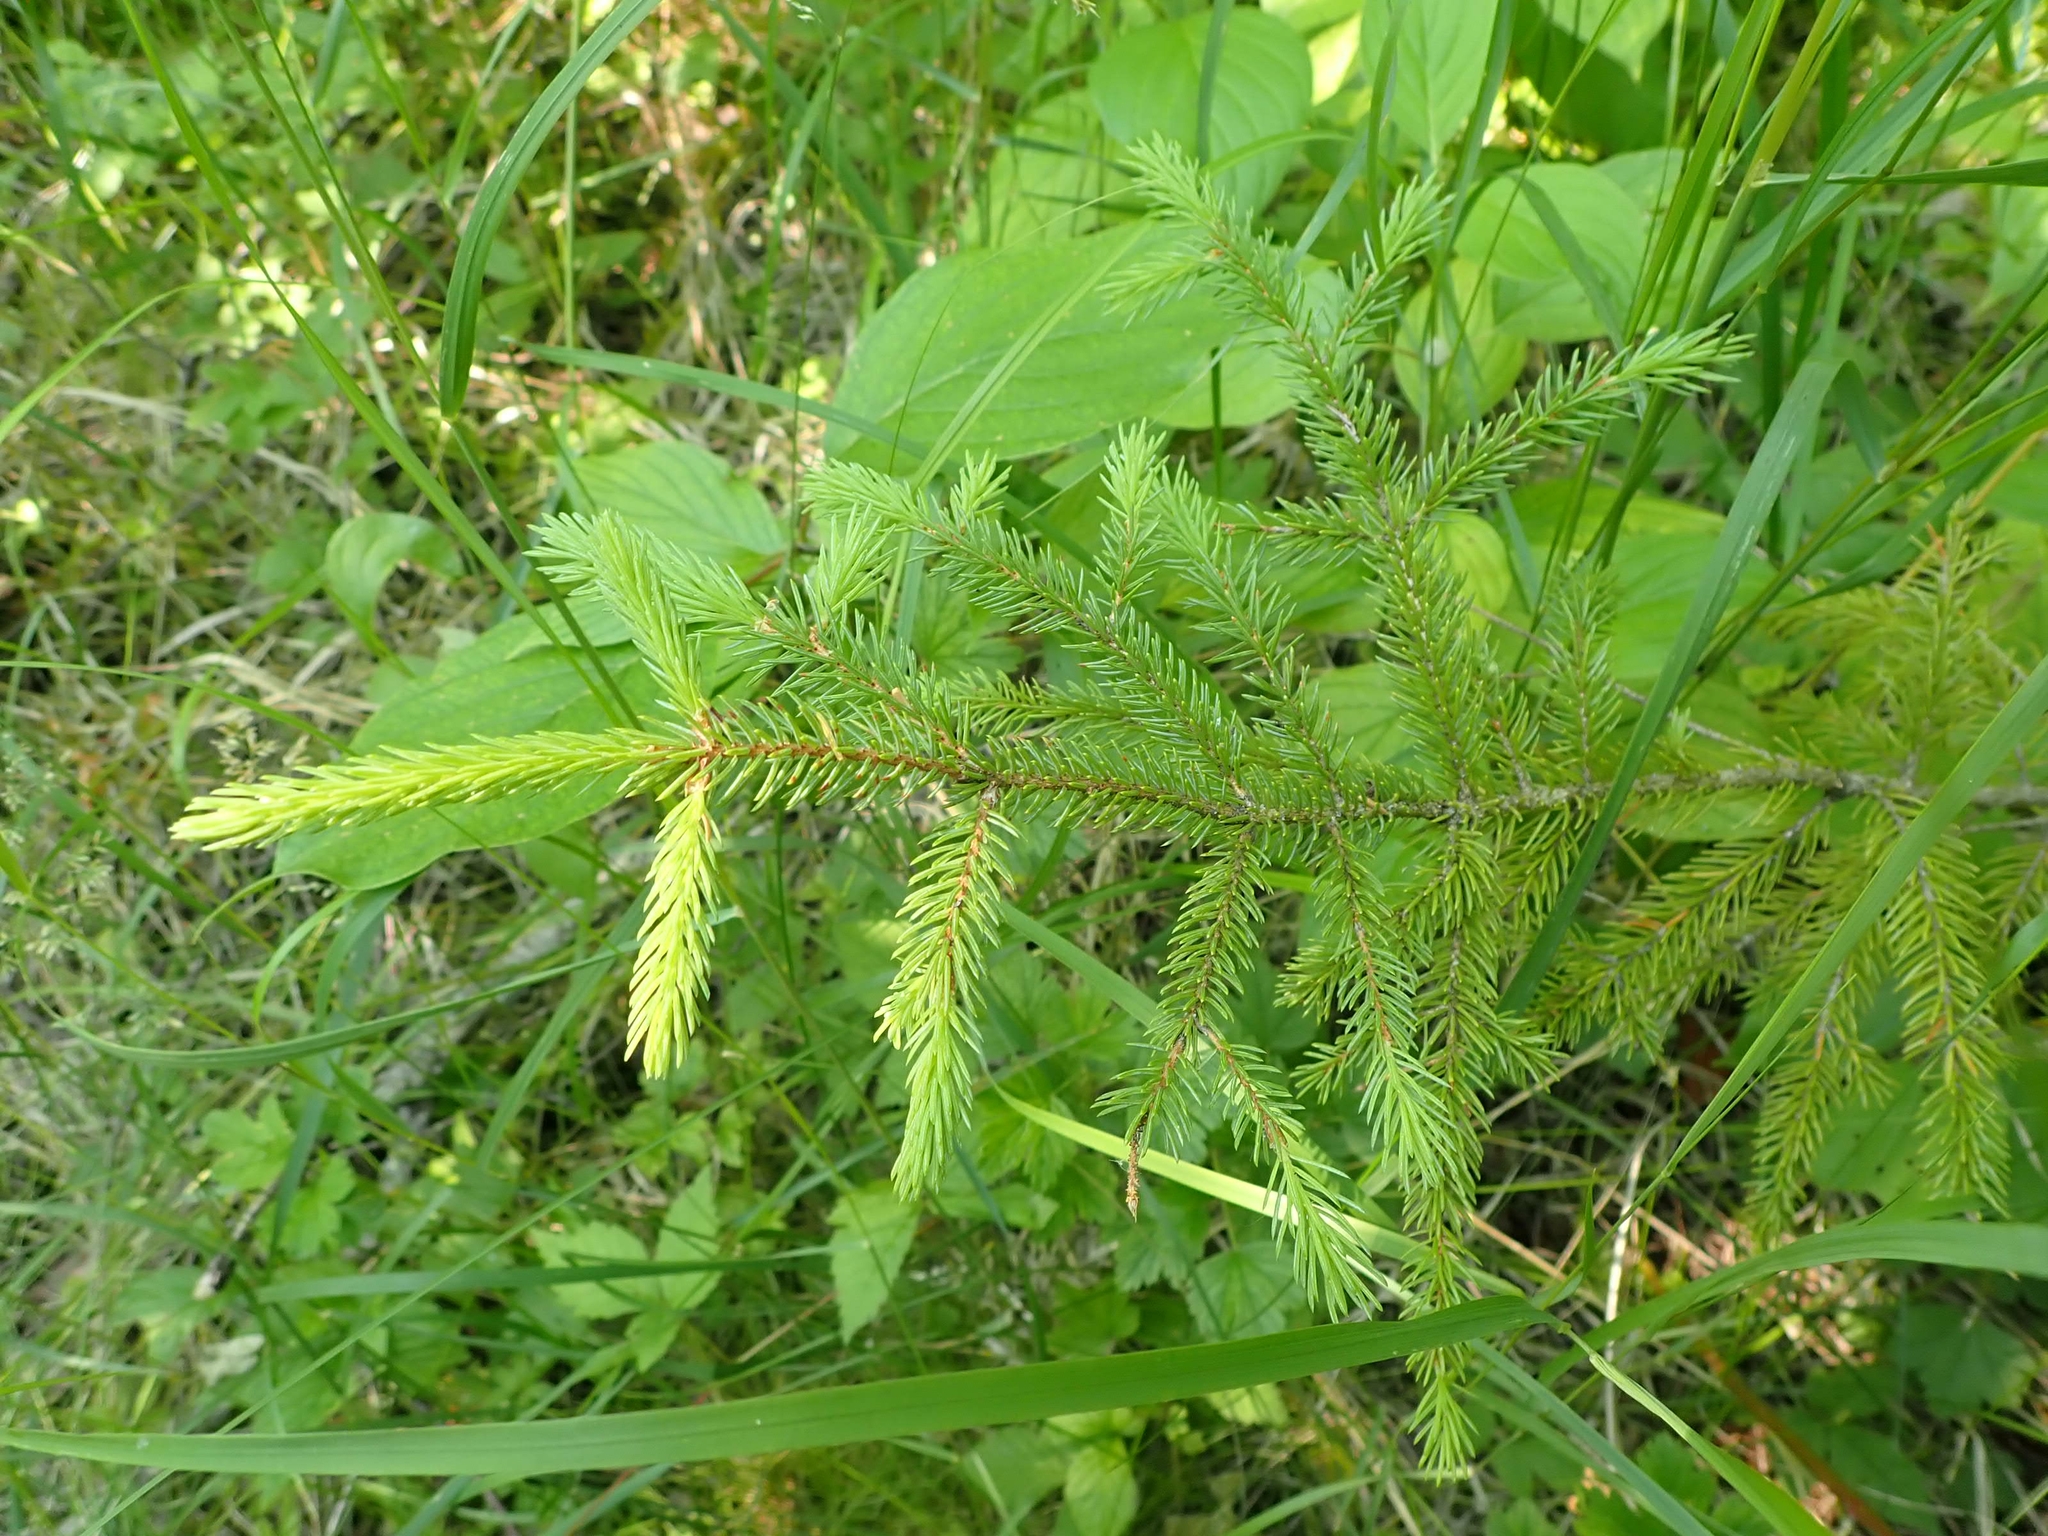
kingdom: Plantae
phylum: Tracheophyta
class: Pinopsida
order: Pinales
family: Pinaceae
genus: Picea
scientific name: Picea mariana
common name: Black spruce
